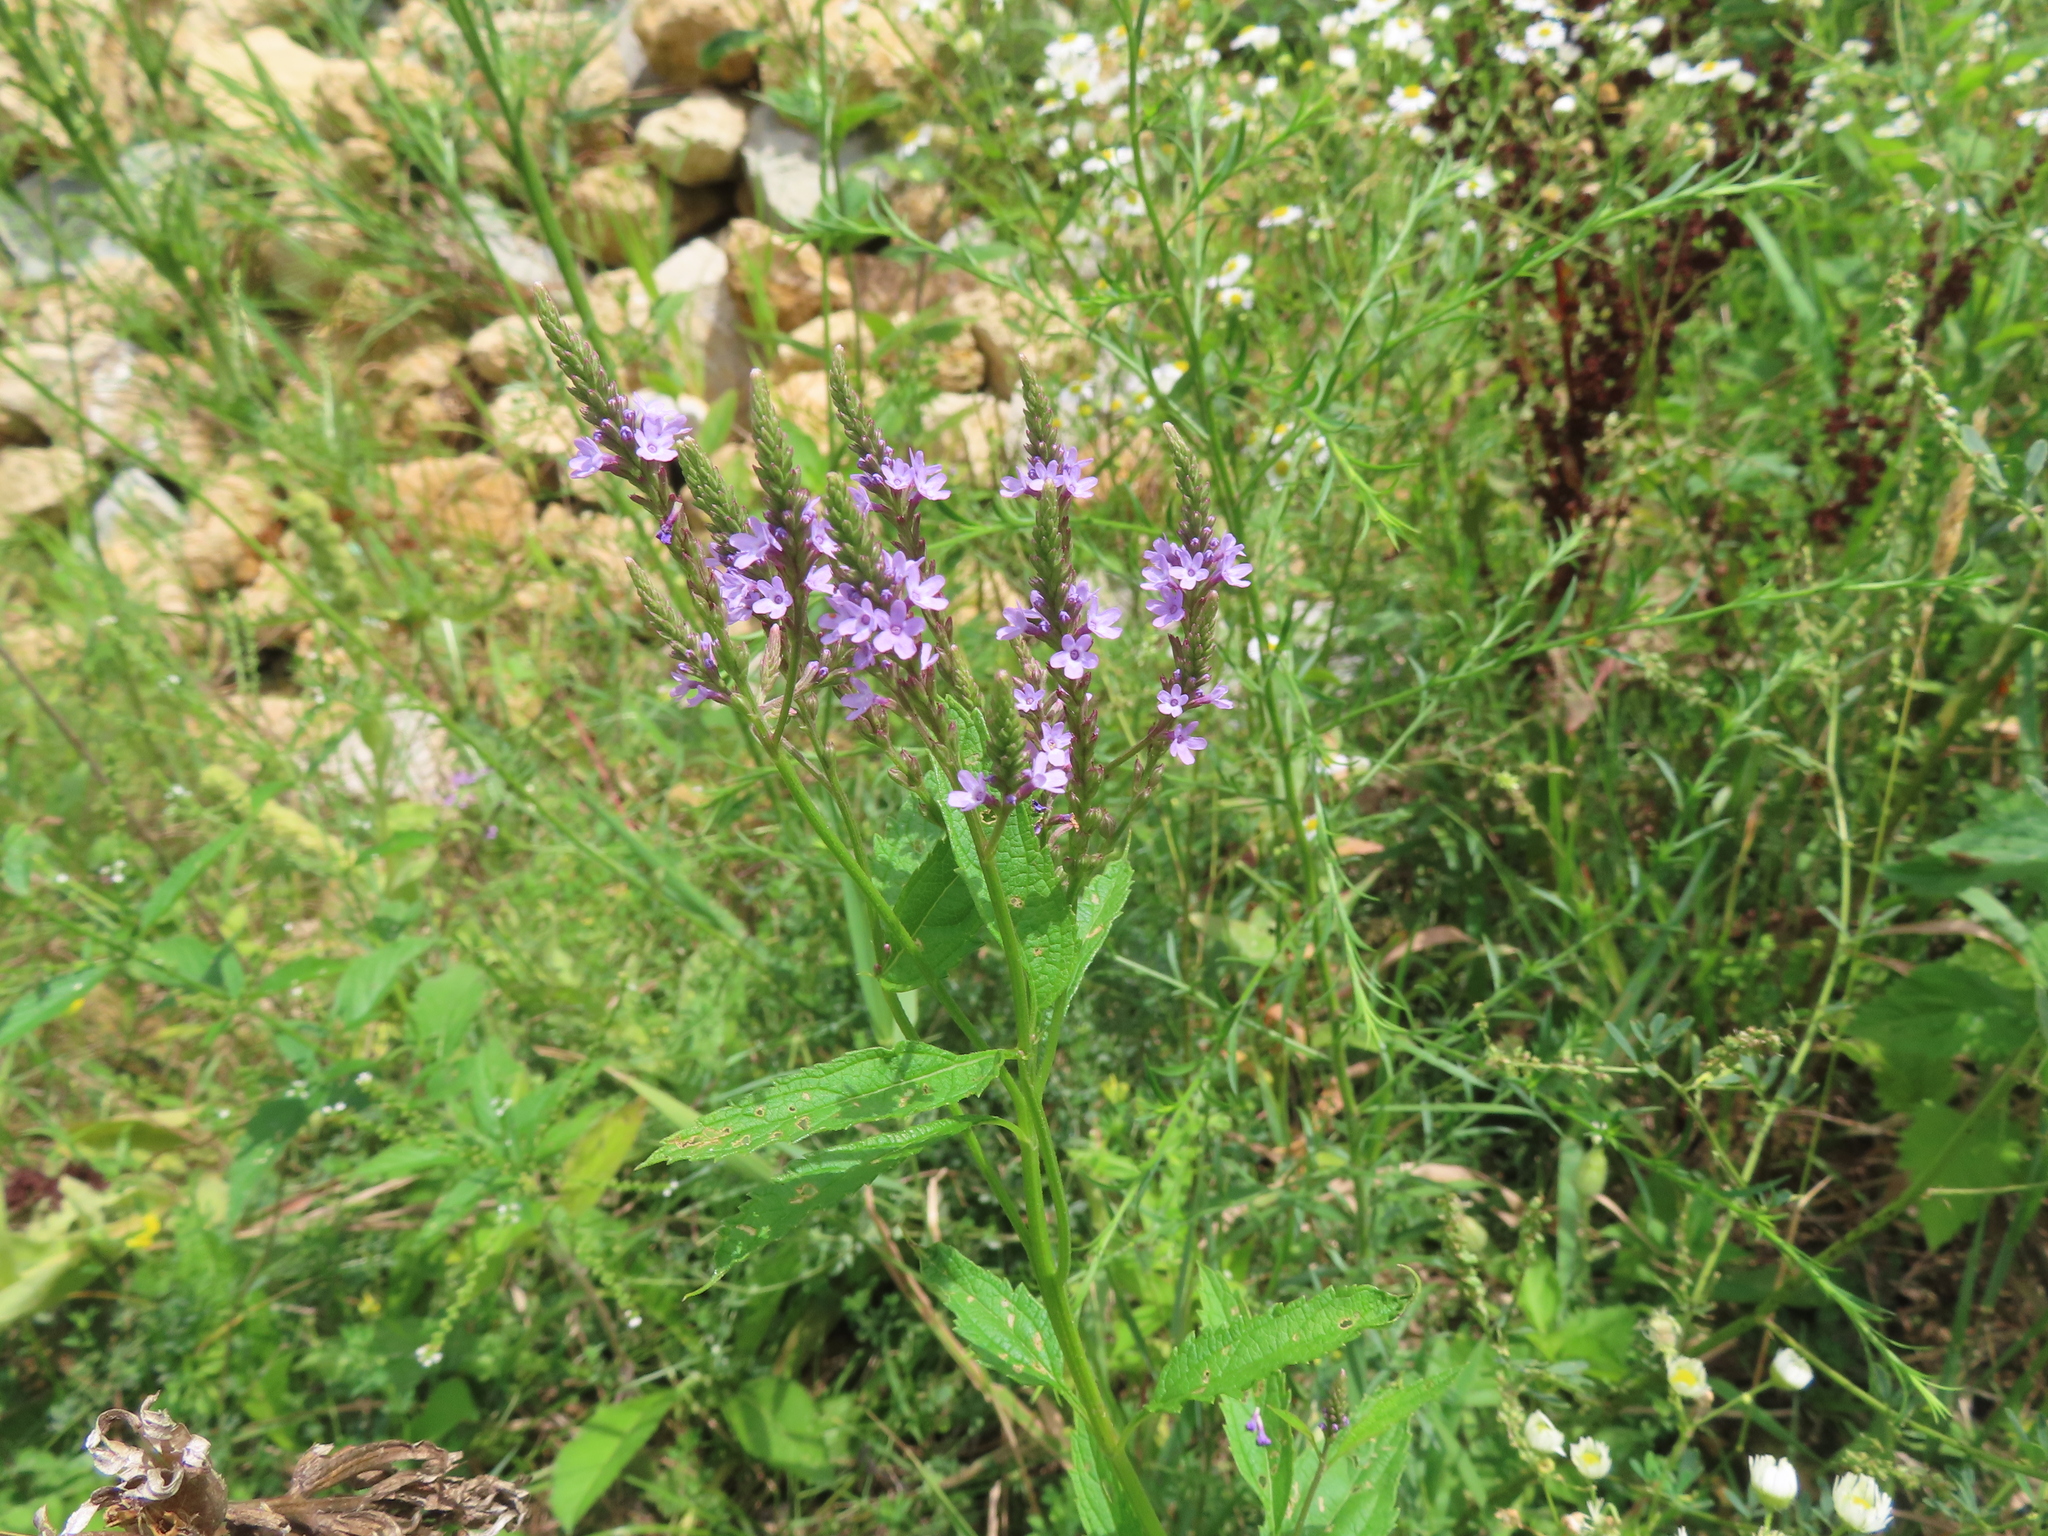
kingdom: Plantae
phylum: Tracheophyta
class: Magnoliopsida
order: Lamiales
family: Verbenaceae
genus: Verbena
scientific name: Verbena hastata
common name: American blue vervain
